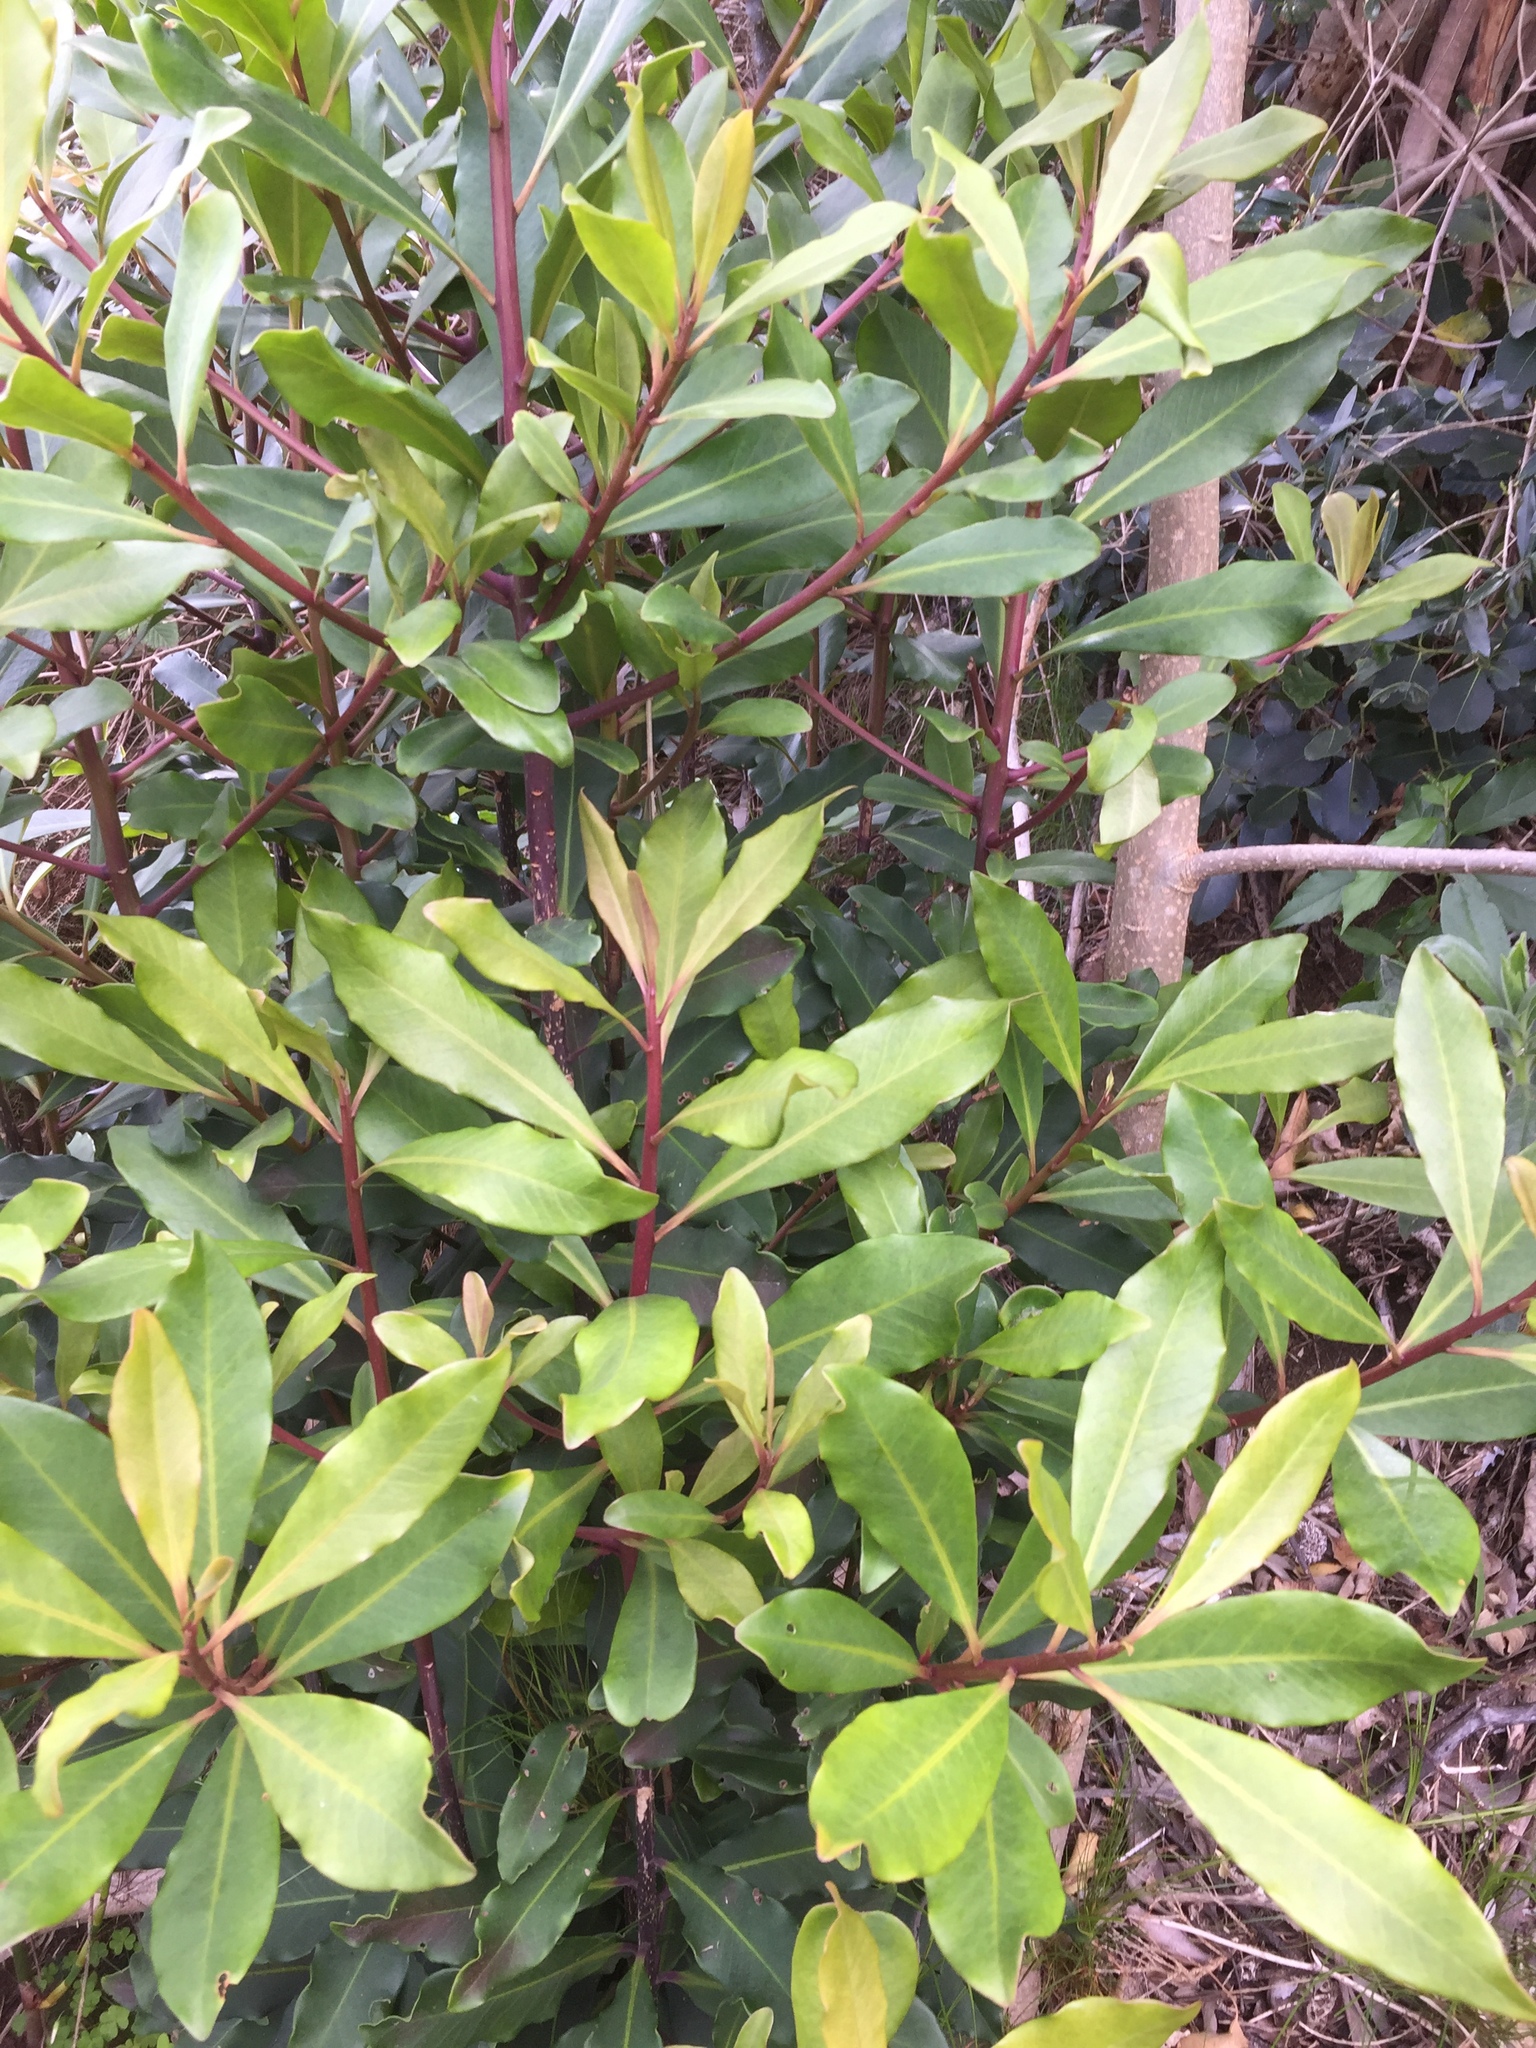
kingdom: Plantae
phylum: Tracheophyta
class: Magnoliopsida
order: Ericales
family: Primulaceae
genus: Myrsine
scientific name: Myrsine melanophloeos
